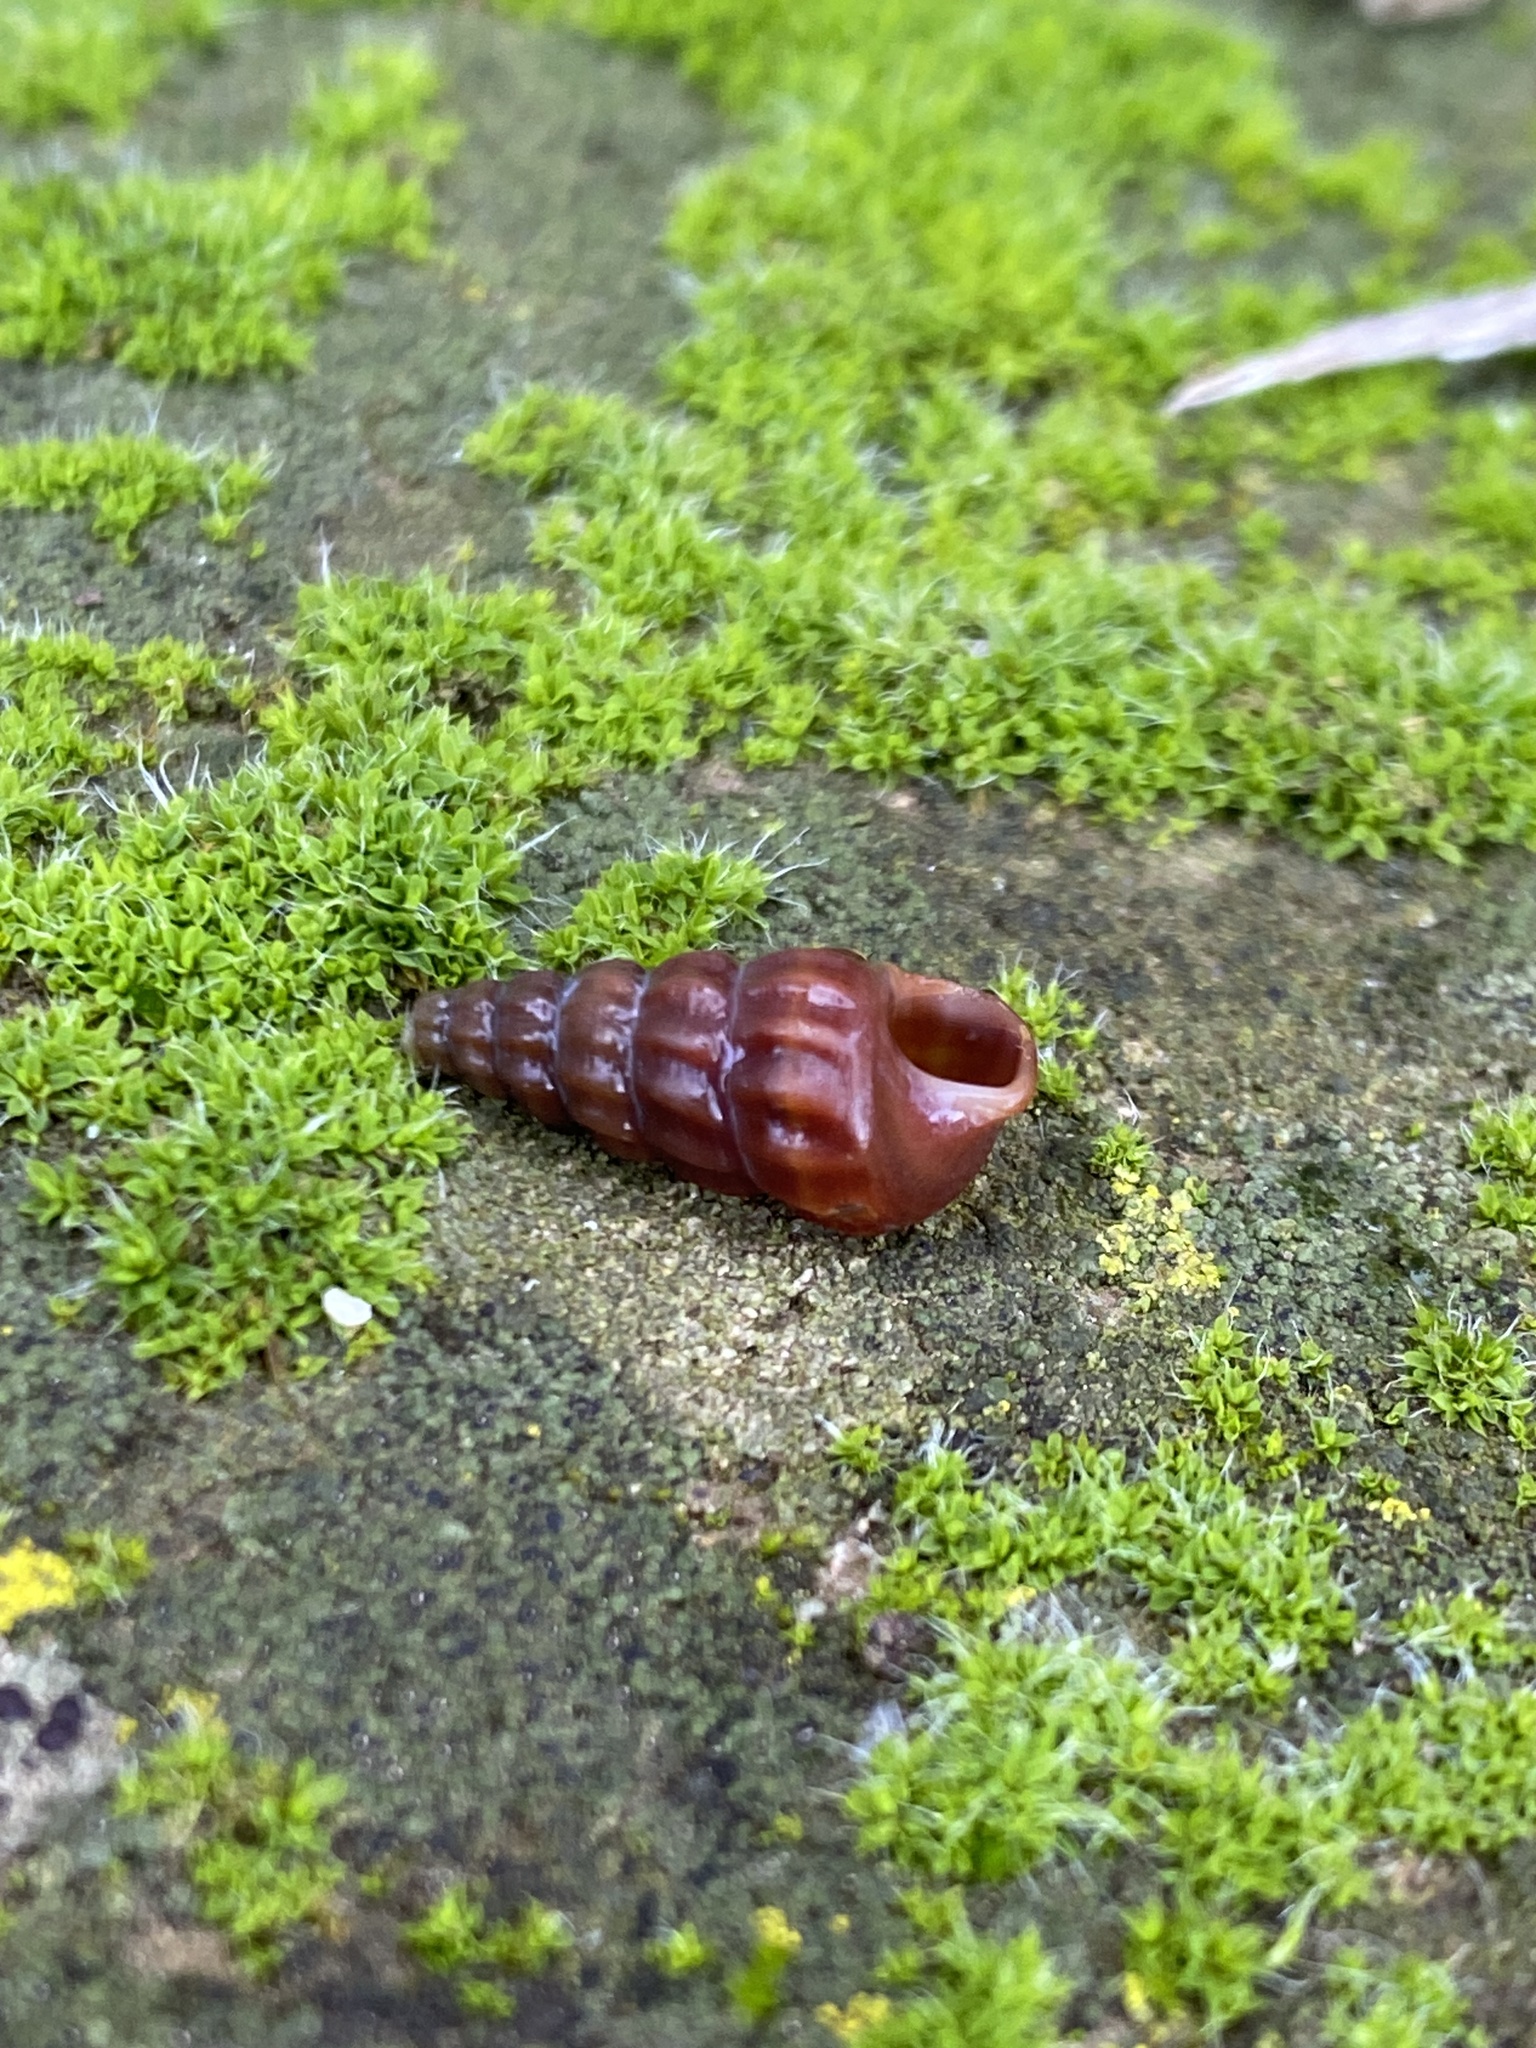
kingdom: Animalia
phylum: Mollusca
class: Gastropoda
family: Potamididae
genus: Cerithideopsis
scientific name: Cerithideopsis californica
